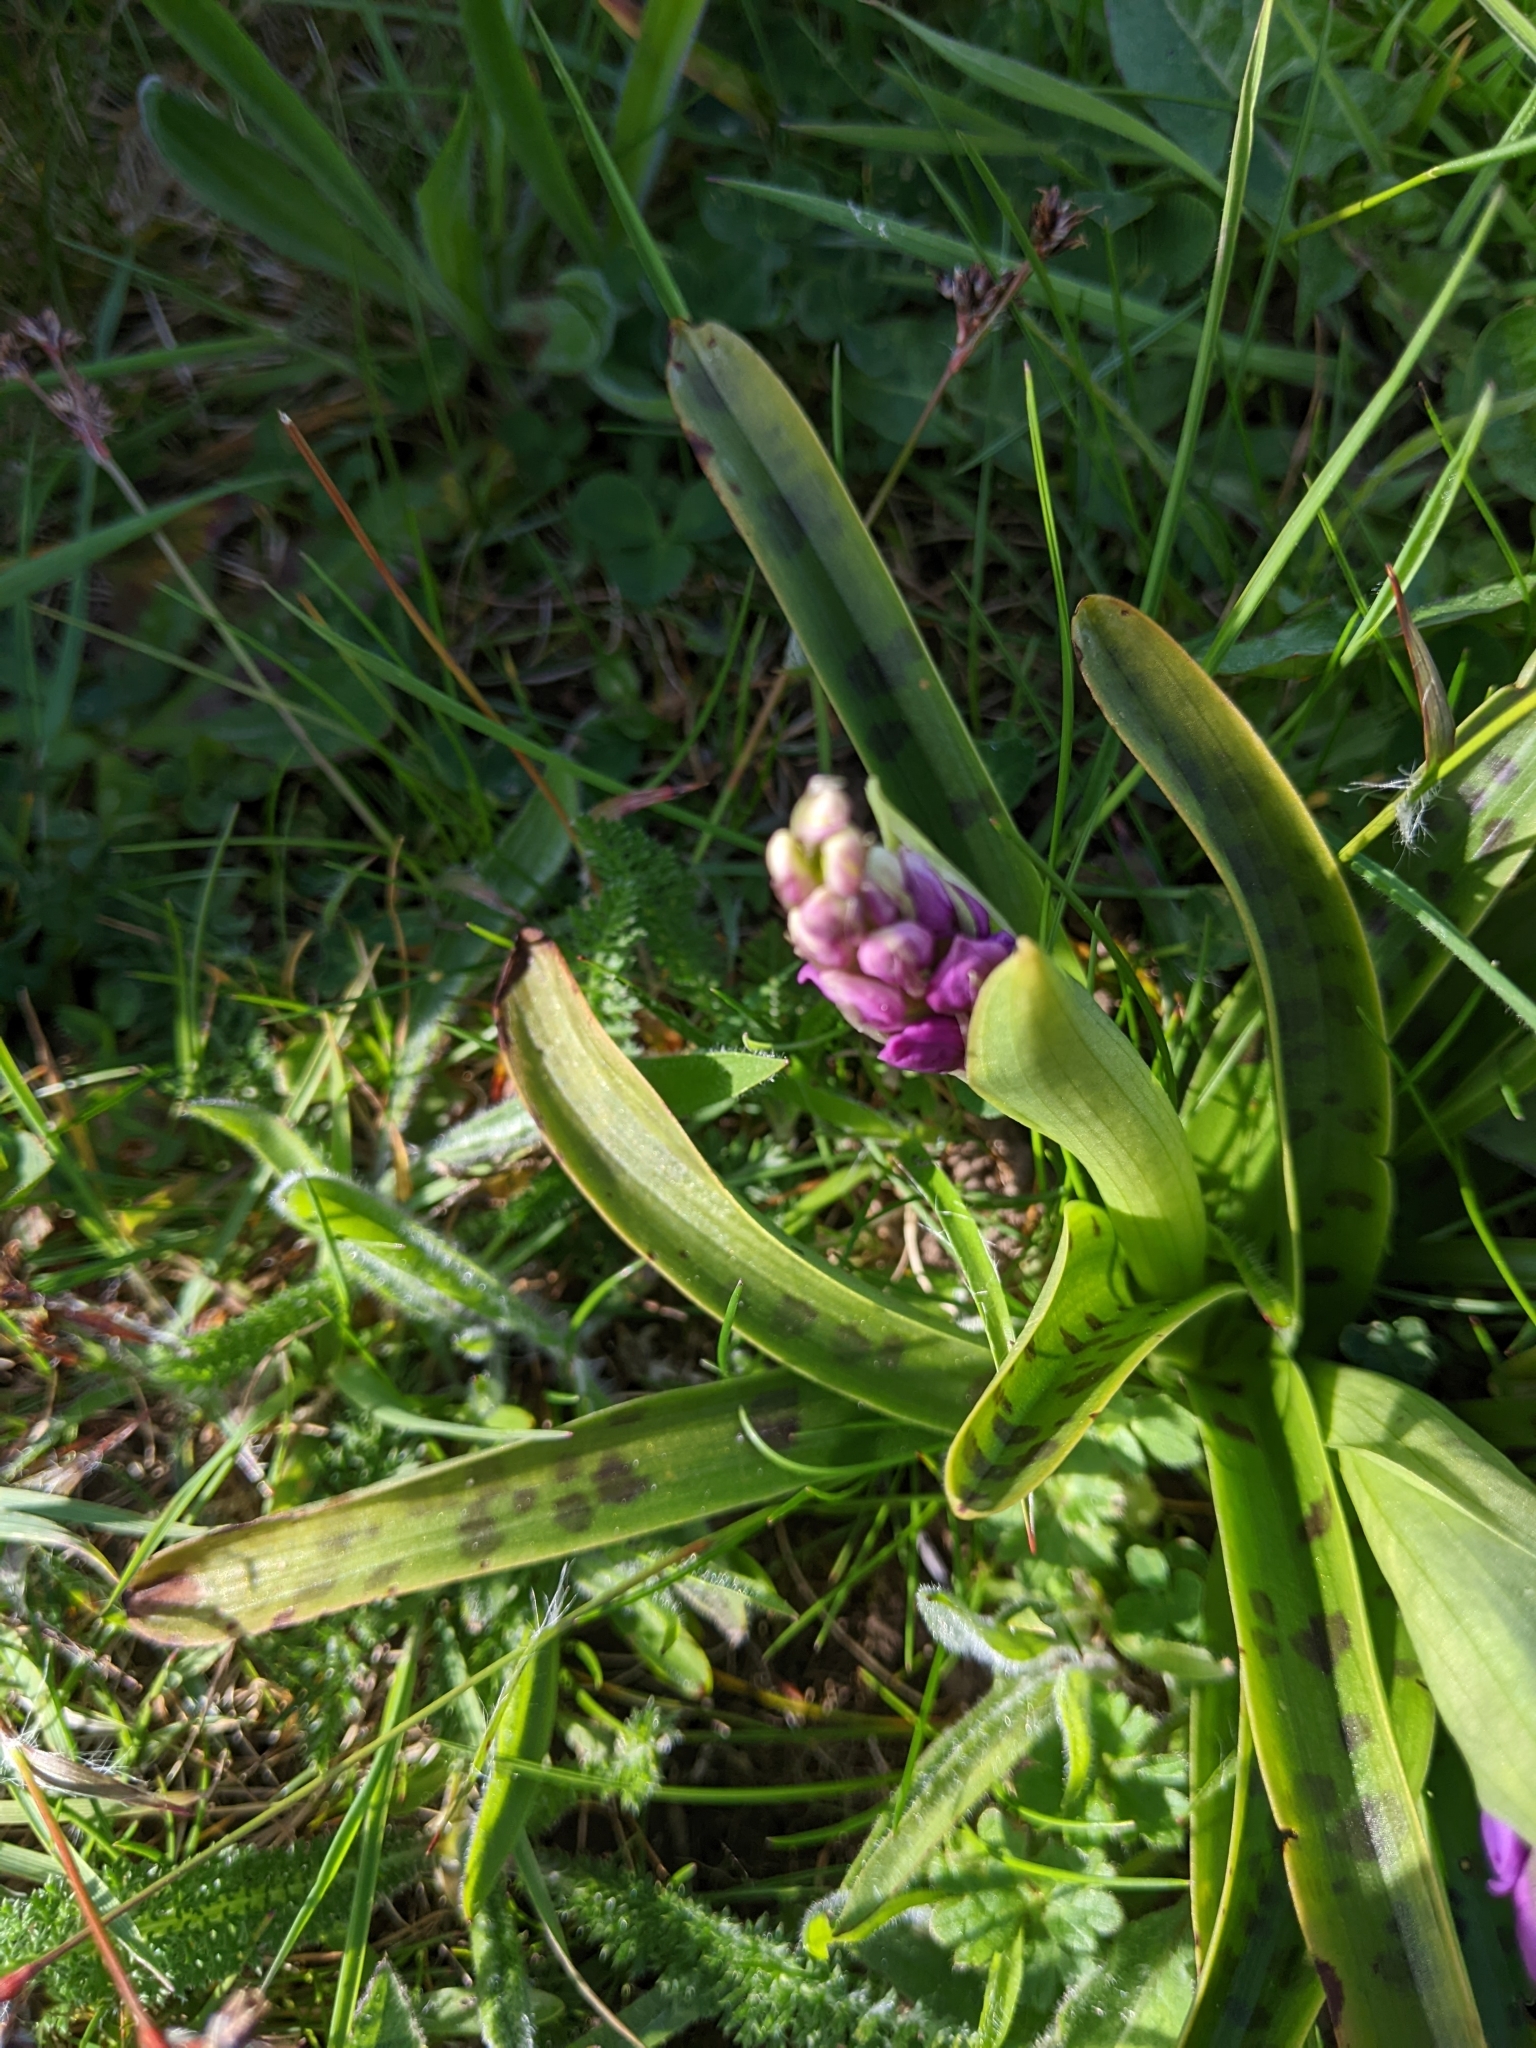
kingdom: Plantae
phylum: Tracheophyta
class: Liliopsida
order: Asparagales
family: Orchidaceae
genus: Orchis
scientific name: Orchis mascula
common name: Early-purple orchid
